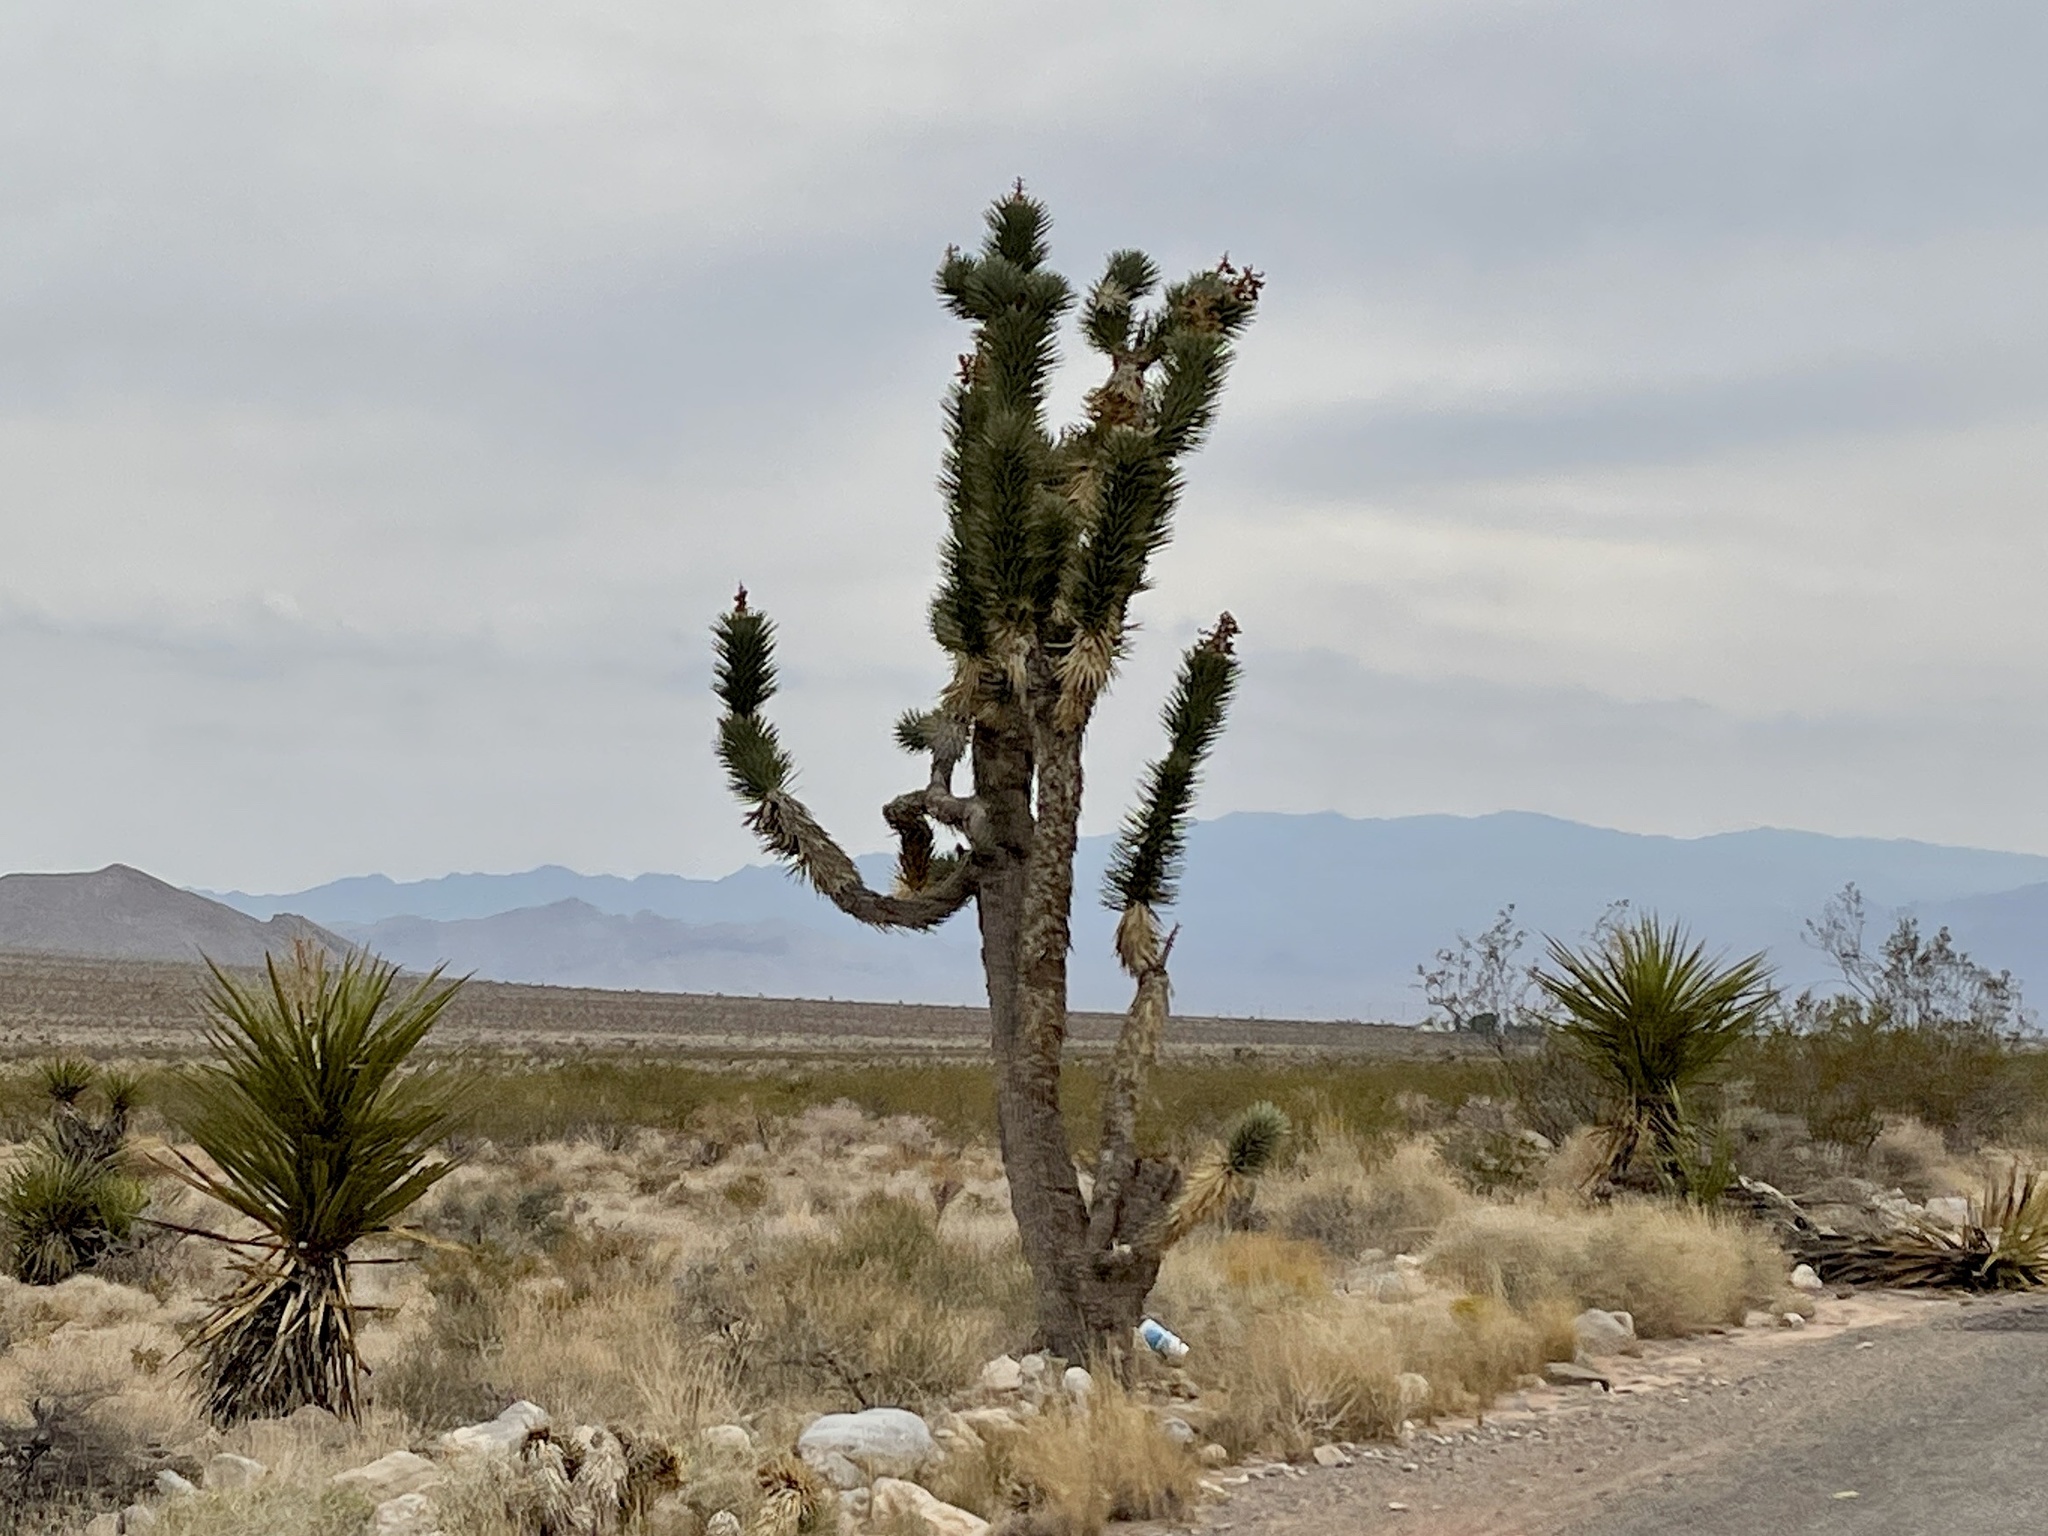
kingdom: Plantae
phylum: Tracheophyta
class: Liliopsida
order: Asparagales
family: Asparagaceae
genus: Yucca
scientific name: Yucca brevifolia
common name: Joshua tree
